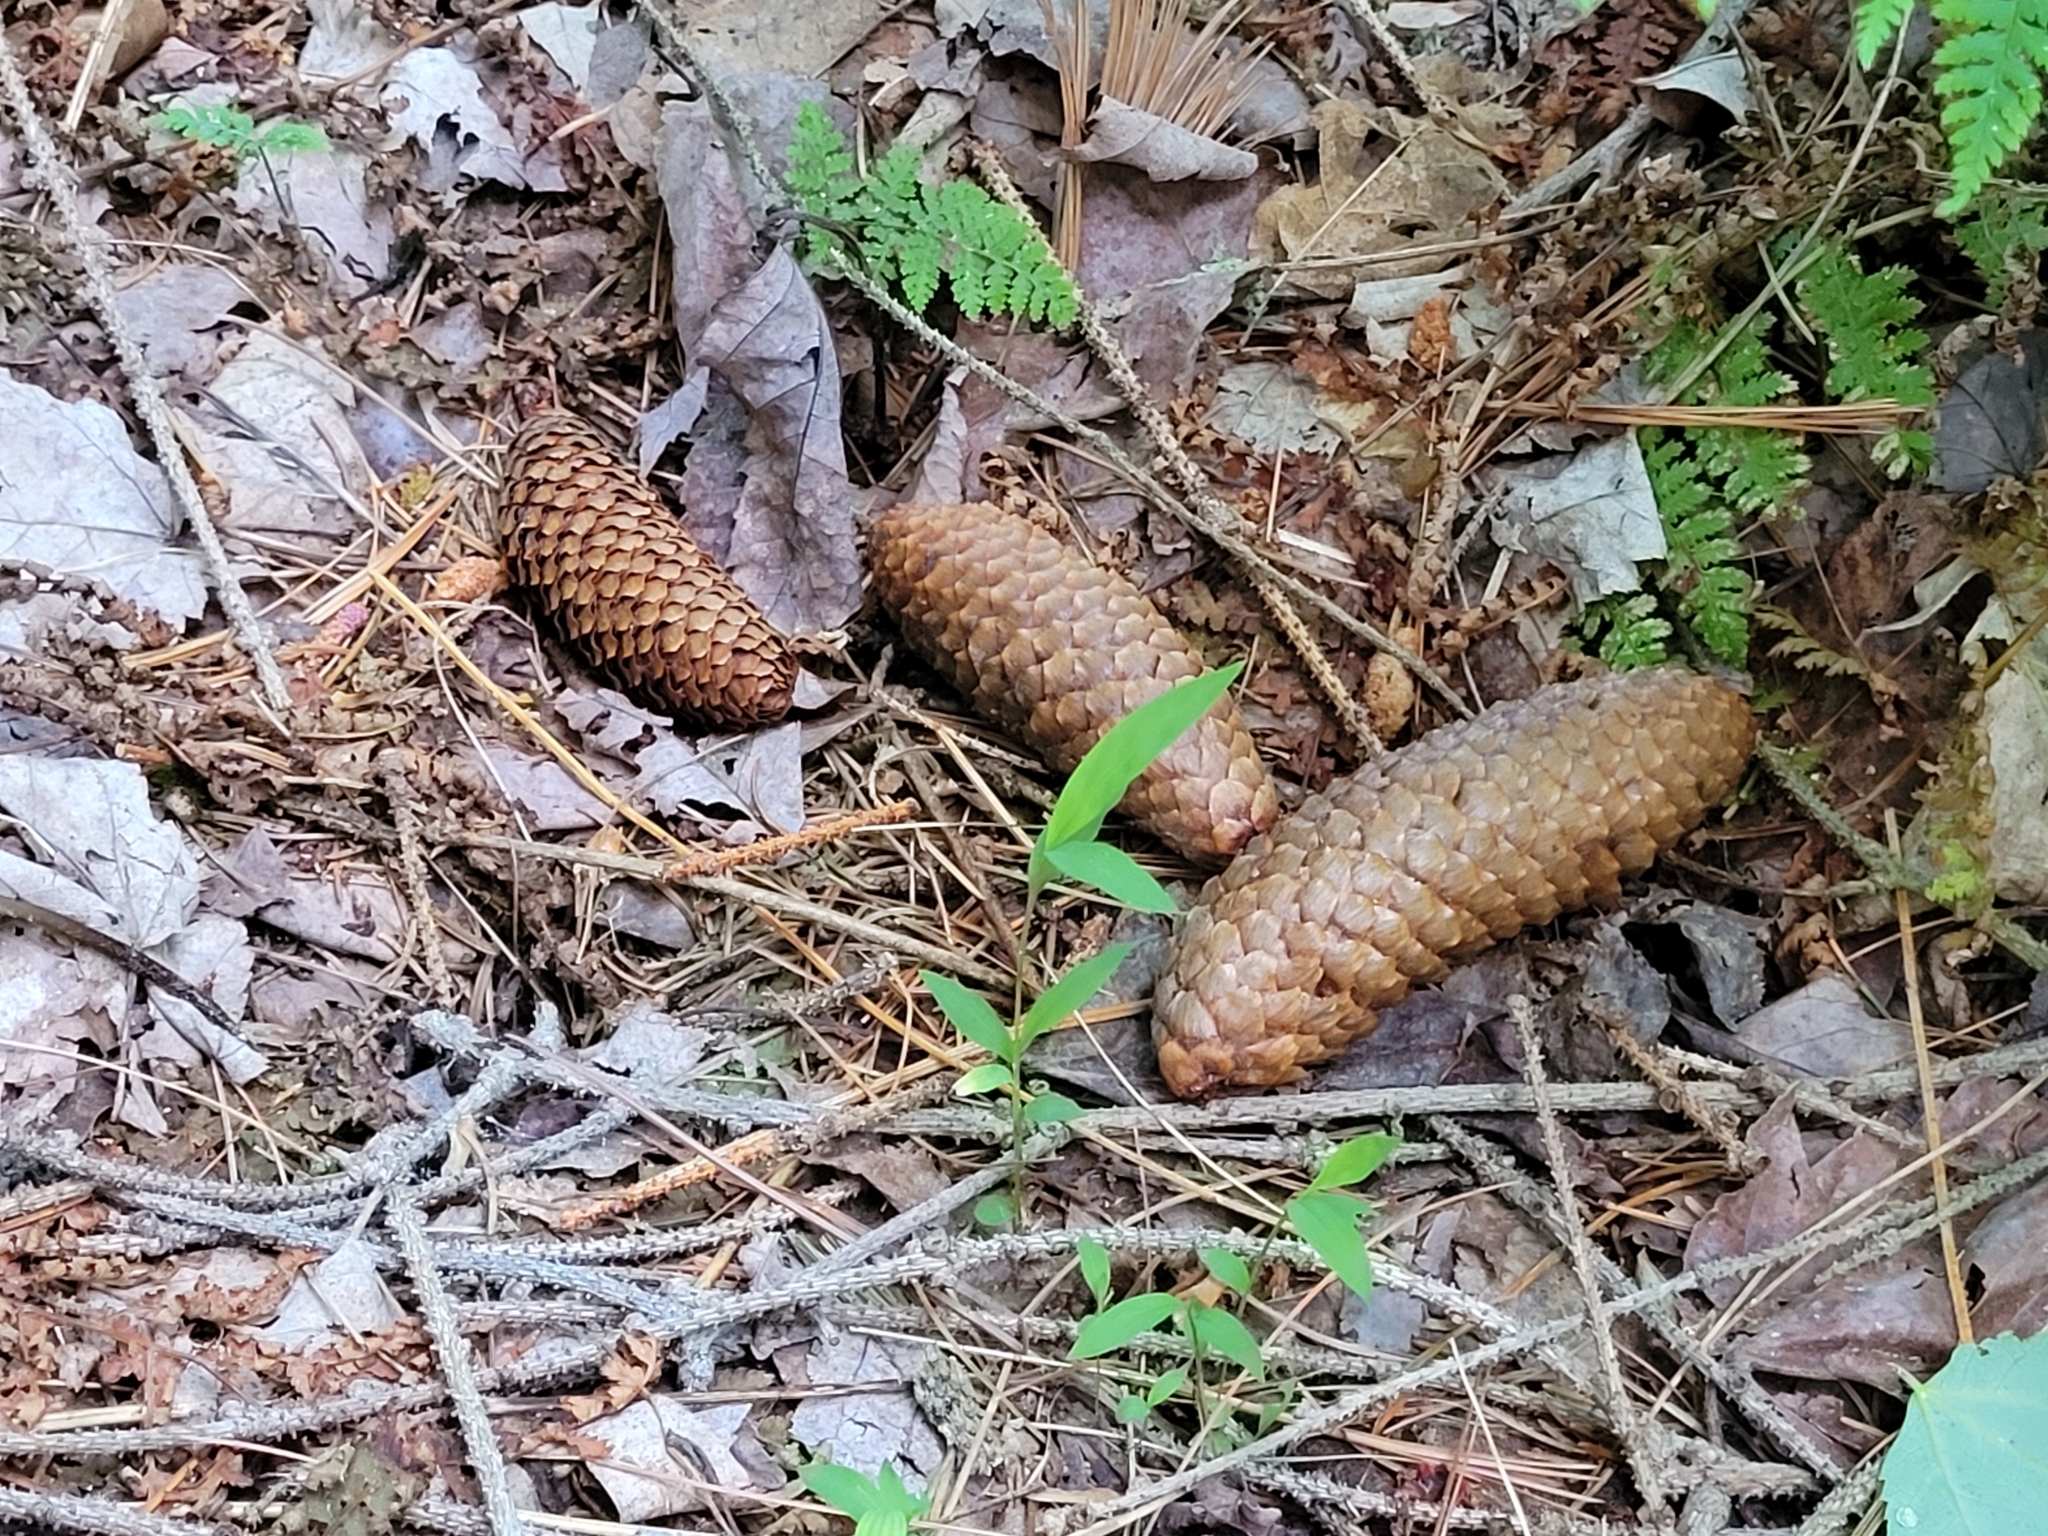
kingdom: Plantae
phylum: Tracheophyta
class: Pinopsida
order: Pinales
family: Pinaceae
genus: Picea
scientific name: Picea abies
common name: Norway spruce
